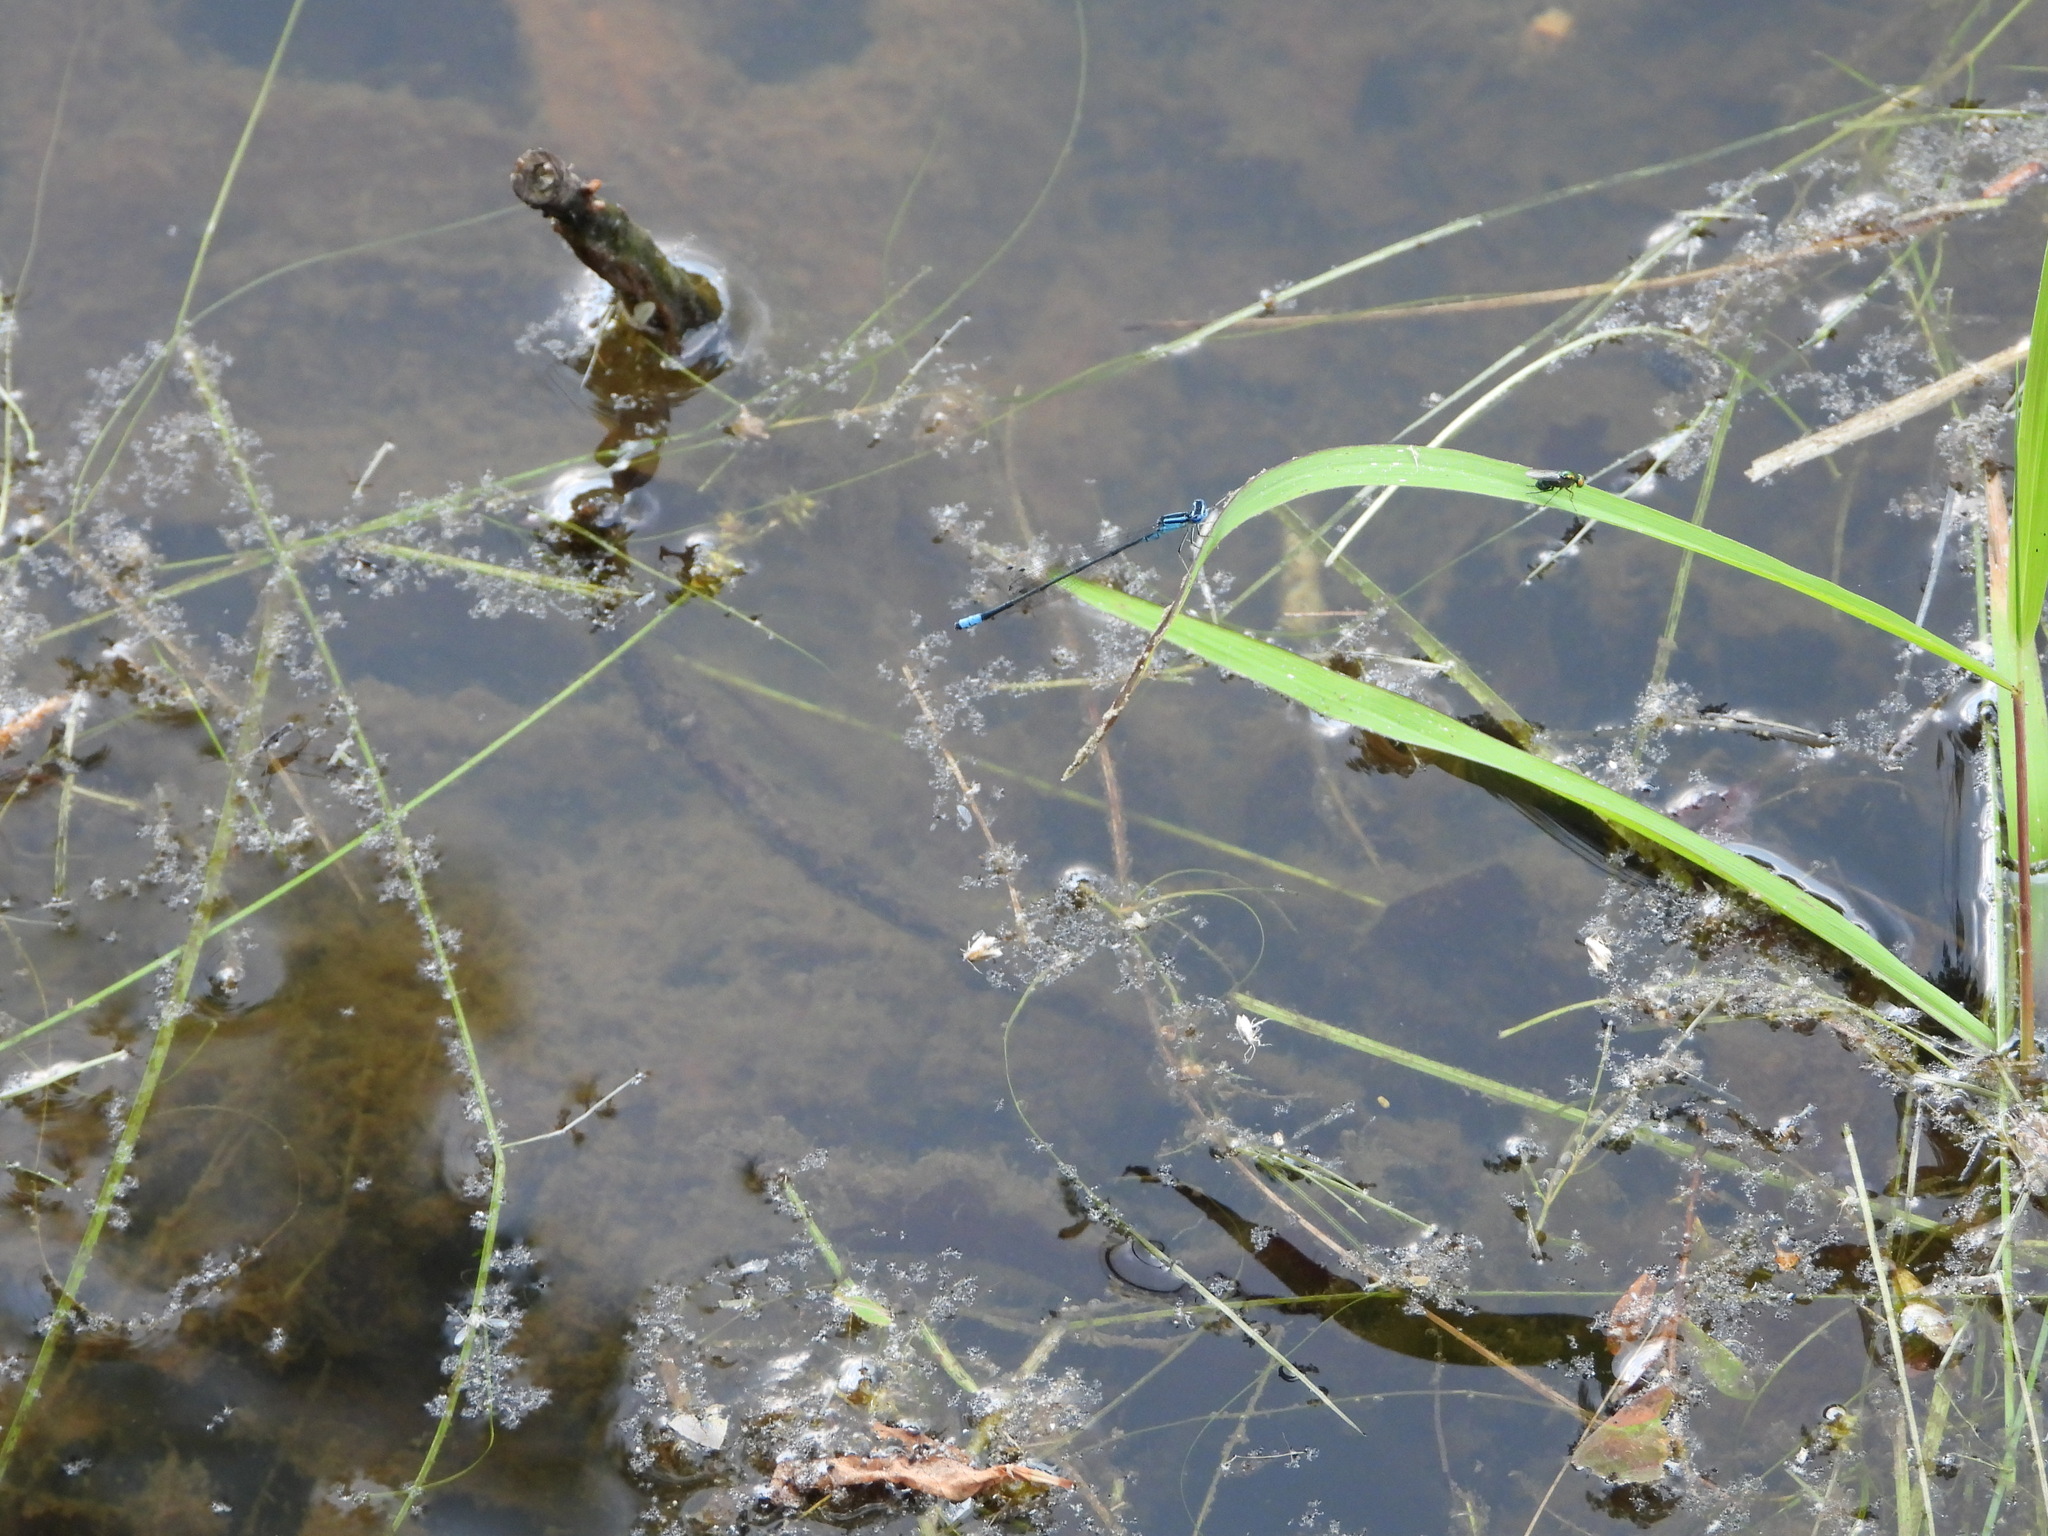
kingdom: Animalia
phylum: Arthropoda
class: Insecta
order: Odonata
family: Coenagrionidae
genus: Enallagma
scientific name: Enallagma divagans
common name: Turquoise bluet
